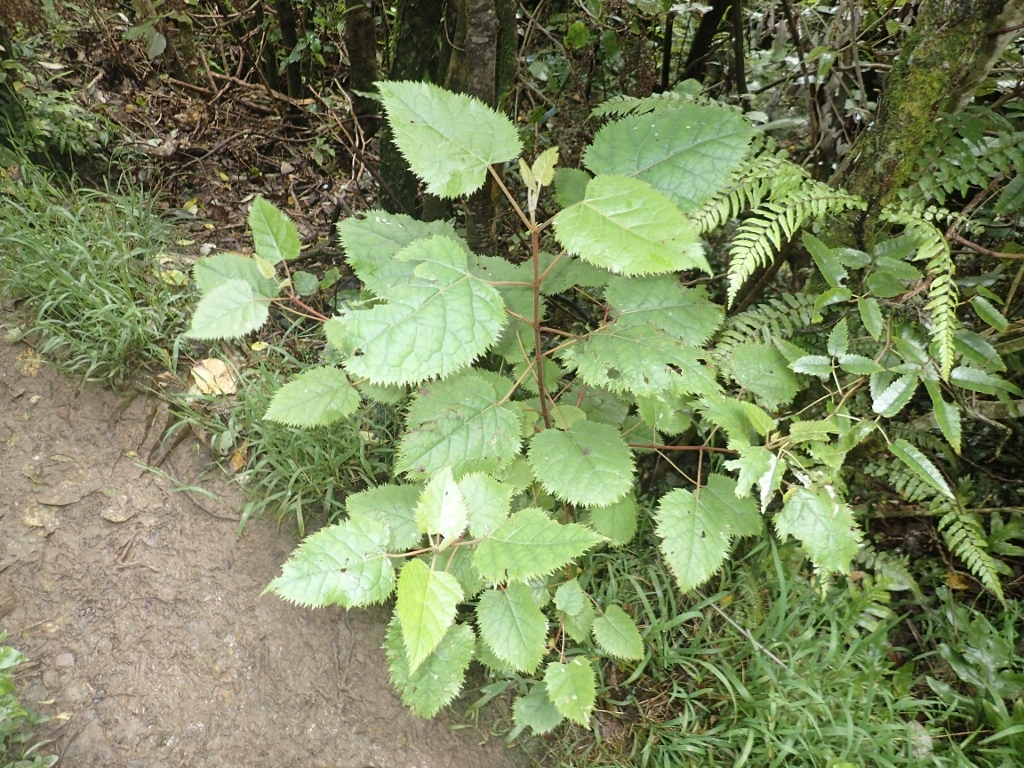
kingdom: Plantae
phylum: Tracheophyta
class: Magnoliopsida
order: Oxalidales
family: Elaeocarpaceae
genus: Aristotelia
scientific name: Aristotelia serrata
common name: New zealand wineberry
